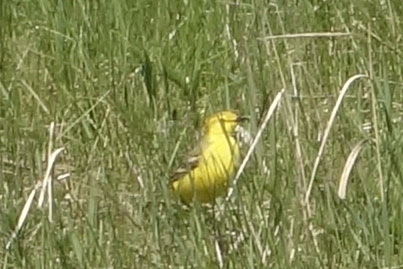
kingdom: Animalia
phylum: Chordata
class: Aves
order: Passeriformes
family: Motacillidae
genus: Motacilla
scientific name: Motacilla flava
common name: Western yellow wagtail
